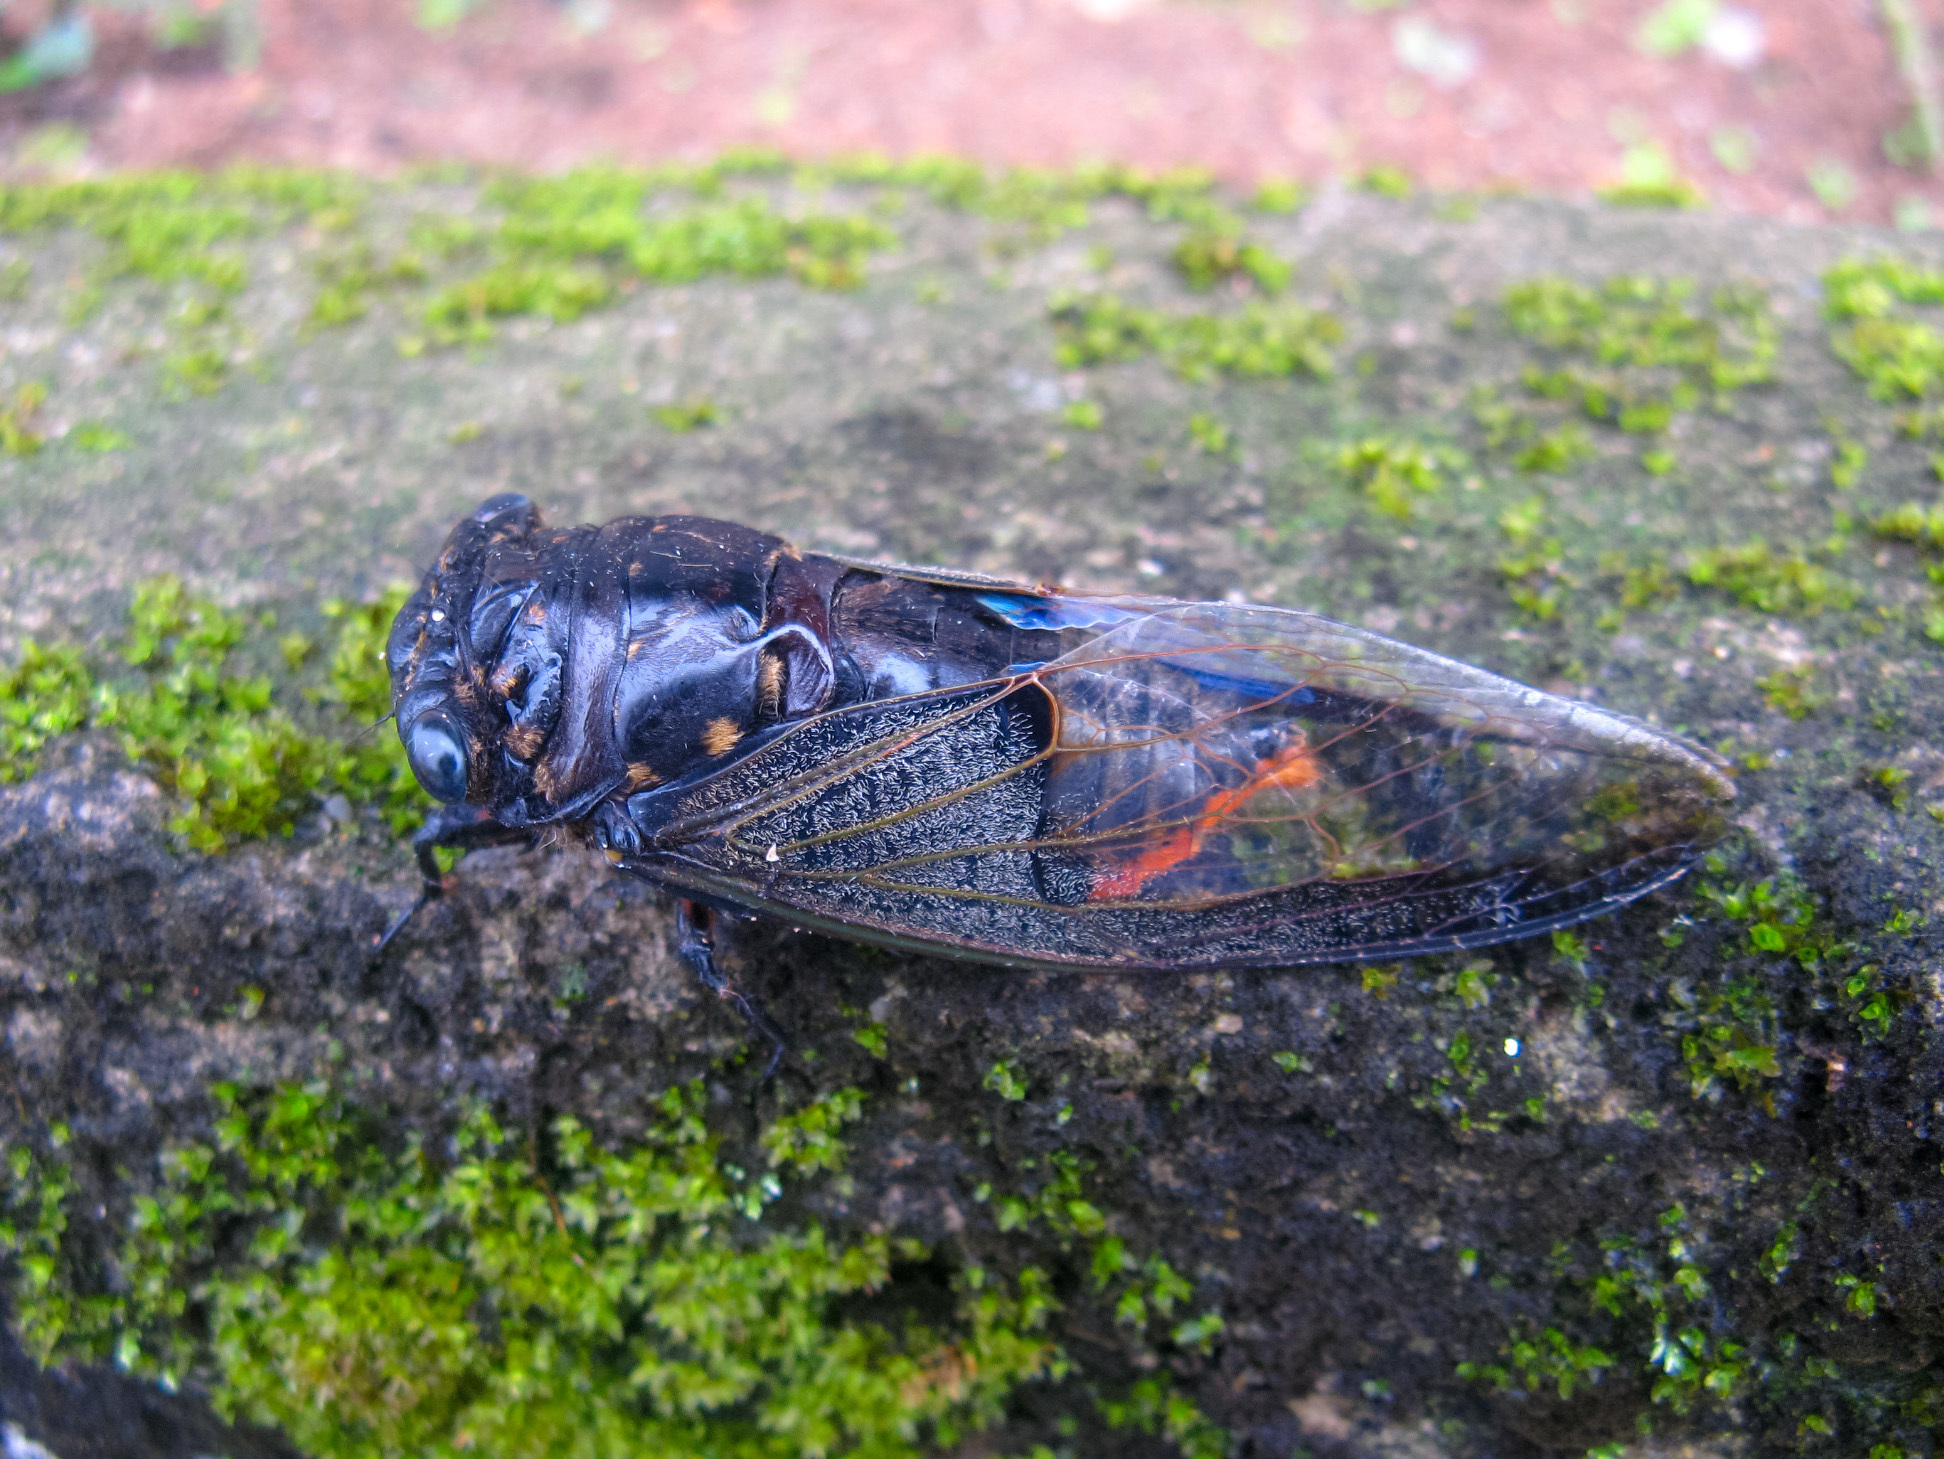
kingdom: Animalia
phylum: Arthropoda
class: Insecta
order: Hemiptera
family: Cicadidae
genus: Cryptotympana
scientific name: Cryptotympana aquila
